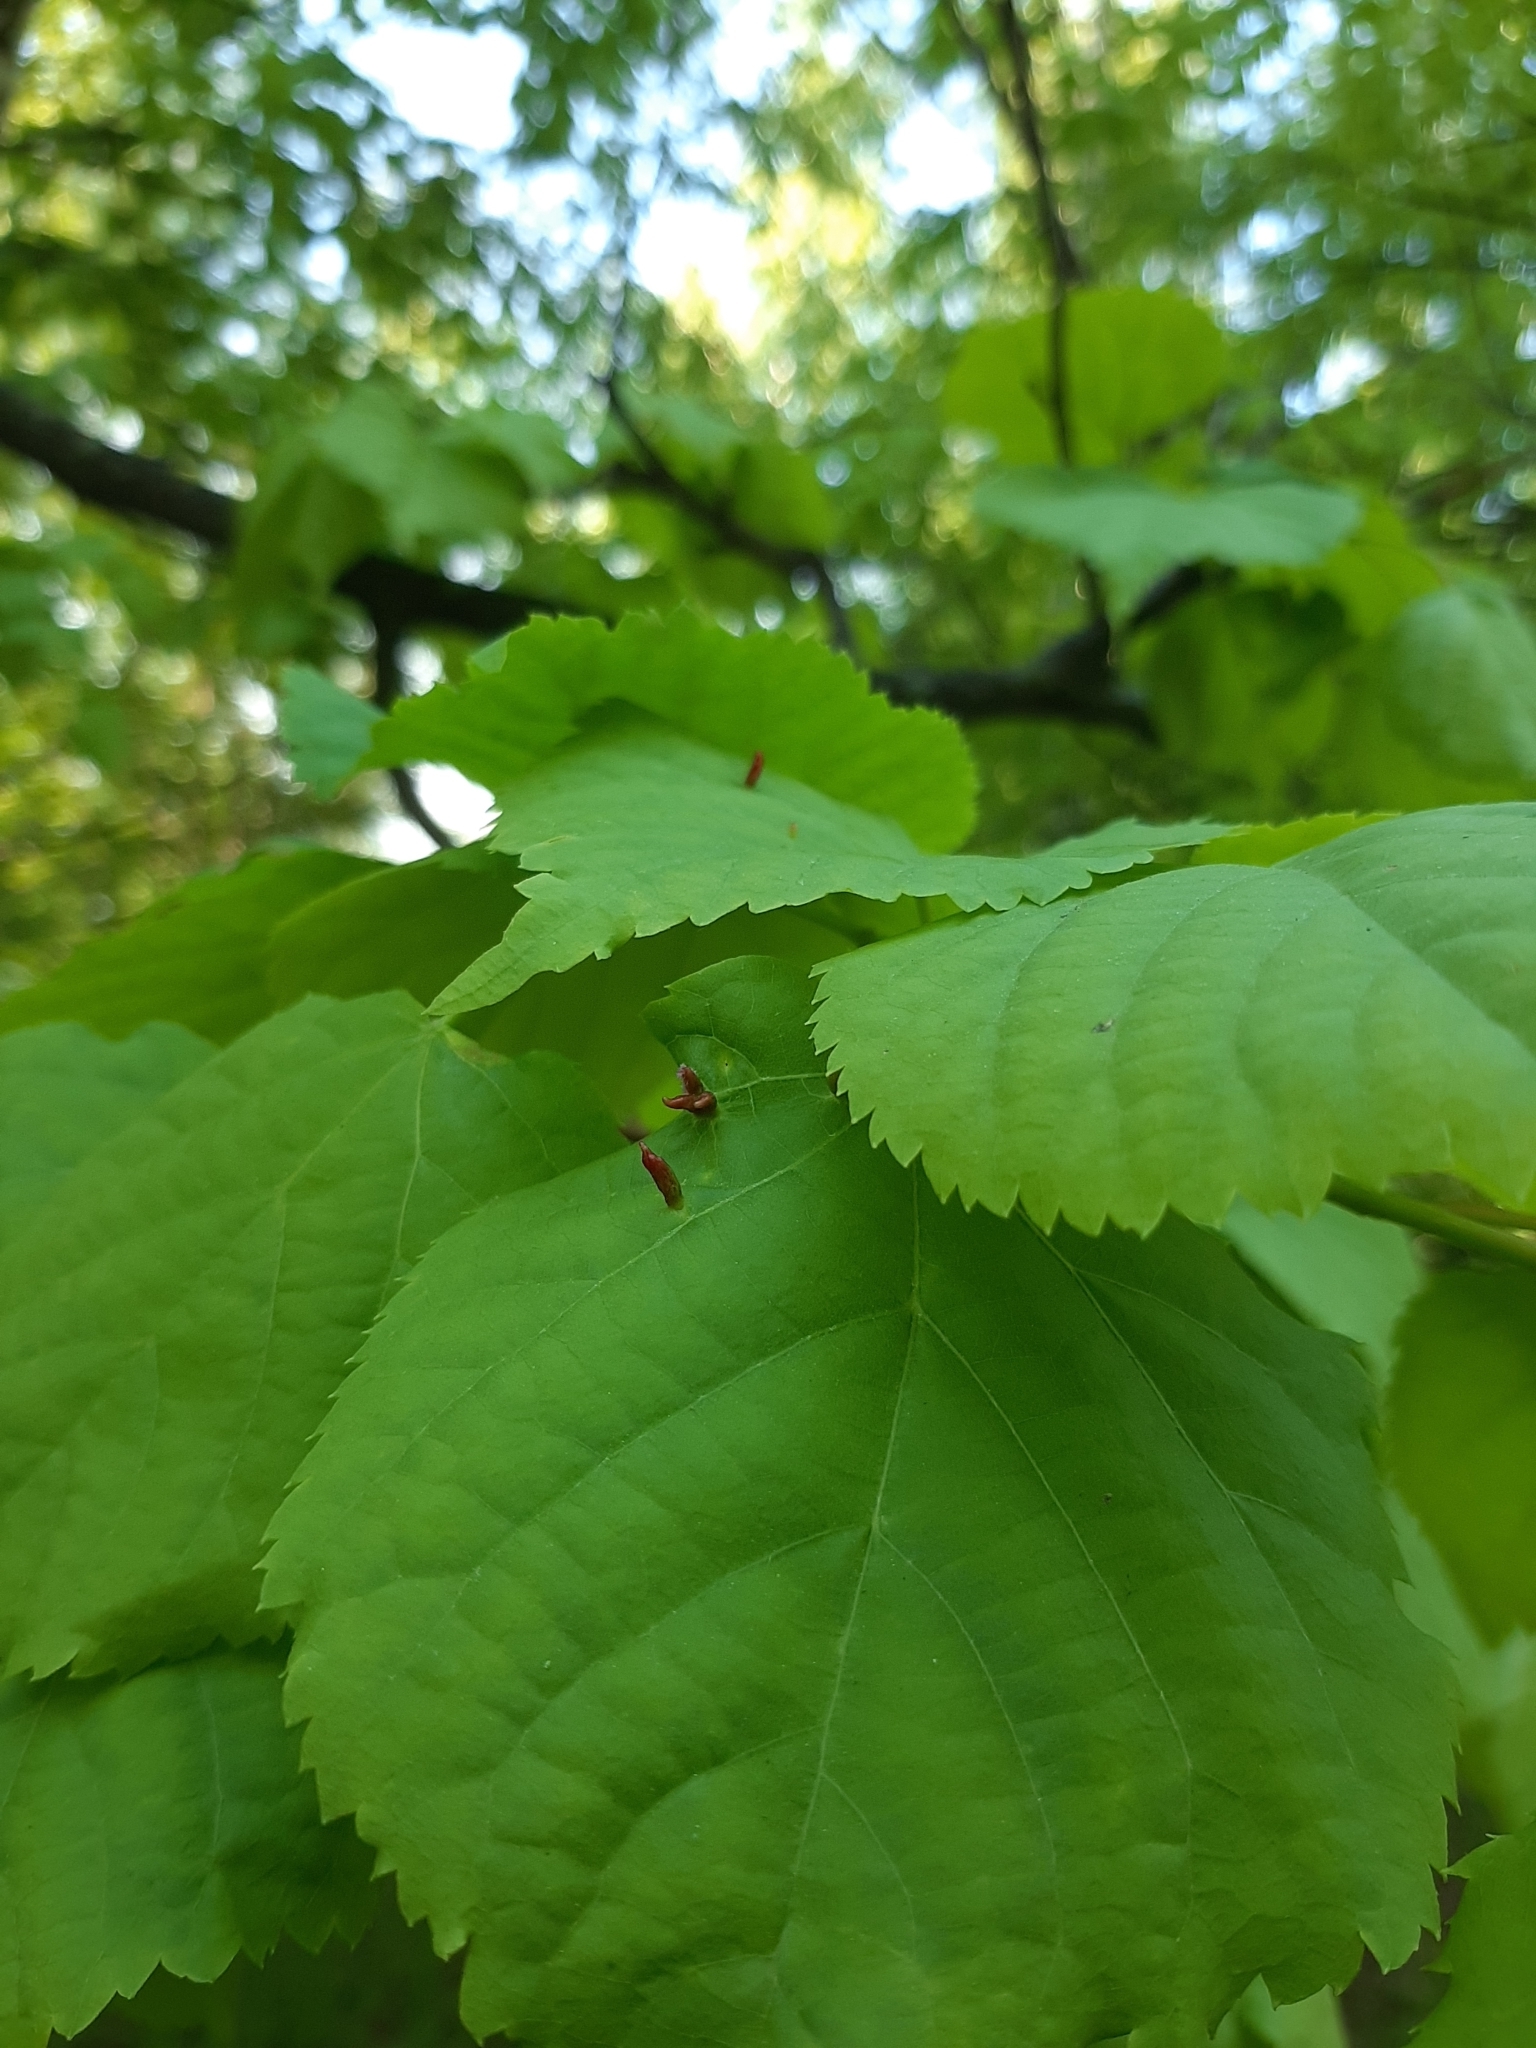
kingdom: Animalia
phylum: Arthropoda
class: Arachnida
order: Trombidiformes
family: Eriophyidae
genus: Eriophyes
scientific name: Eriophyes tiliae
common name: Red nail gall mite
